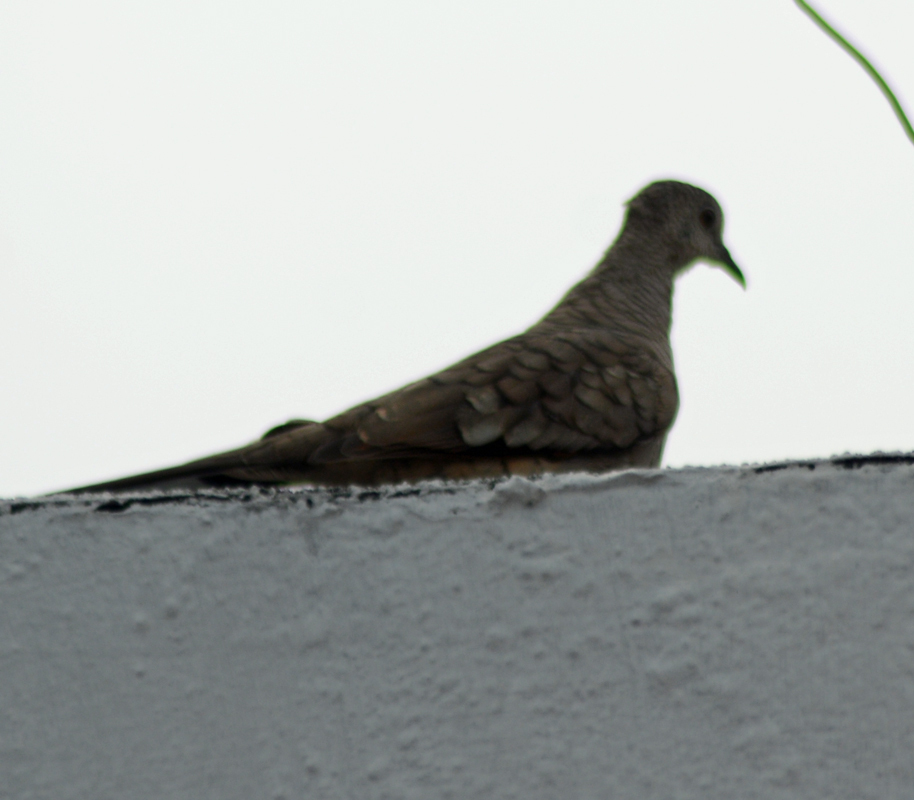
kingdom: Animalia
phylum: Chordata
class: Aves
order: Columbiformes
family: Columbidae
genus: Columbina
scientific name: Columbina inca
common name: Inca dove
